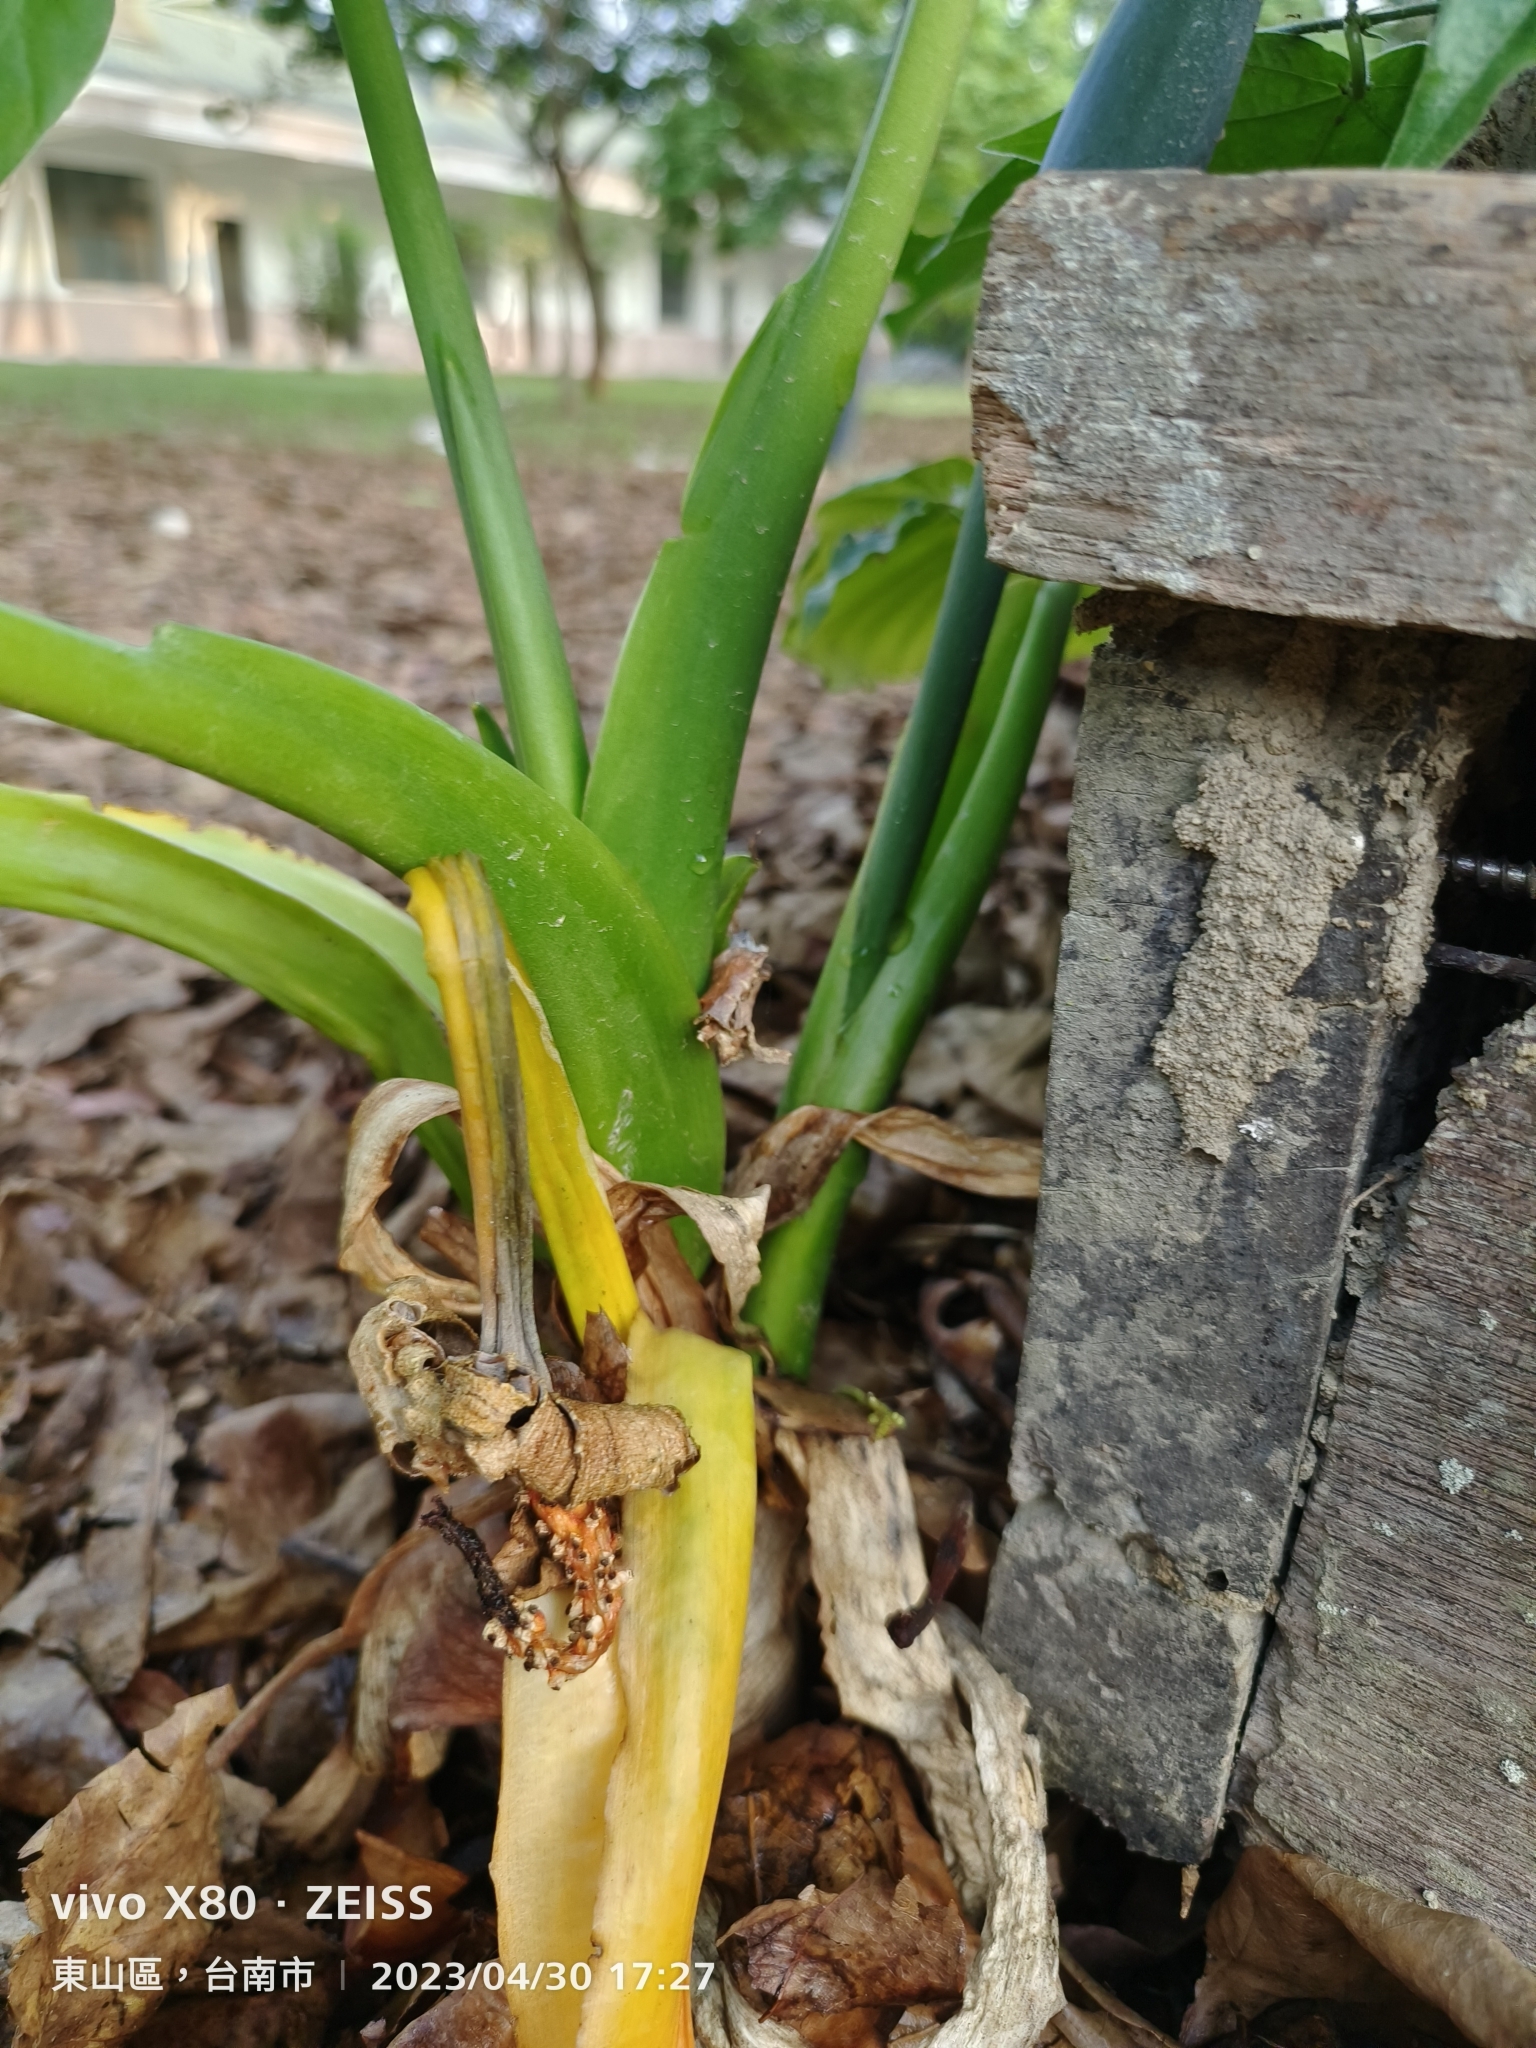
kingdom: Plantae
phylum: Tracheophyta
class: Liliopsida
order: Alismatales
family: Araceae
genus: Alocasia
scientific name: Alocasia odora
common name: Asian taro
